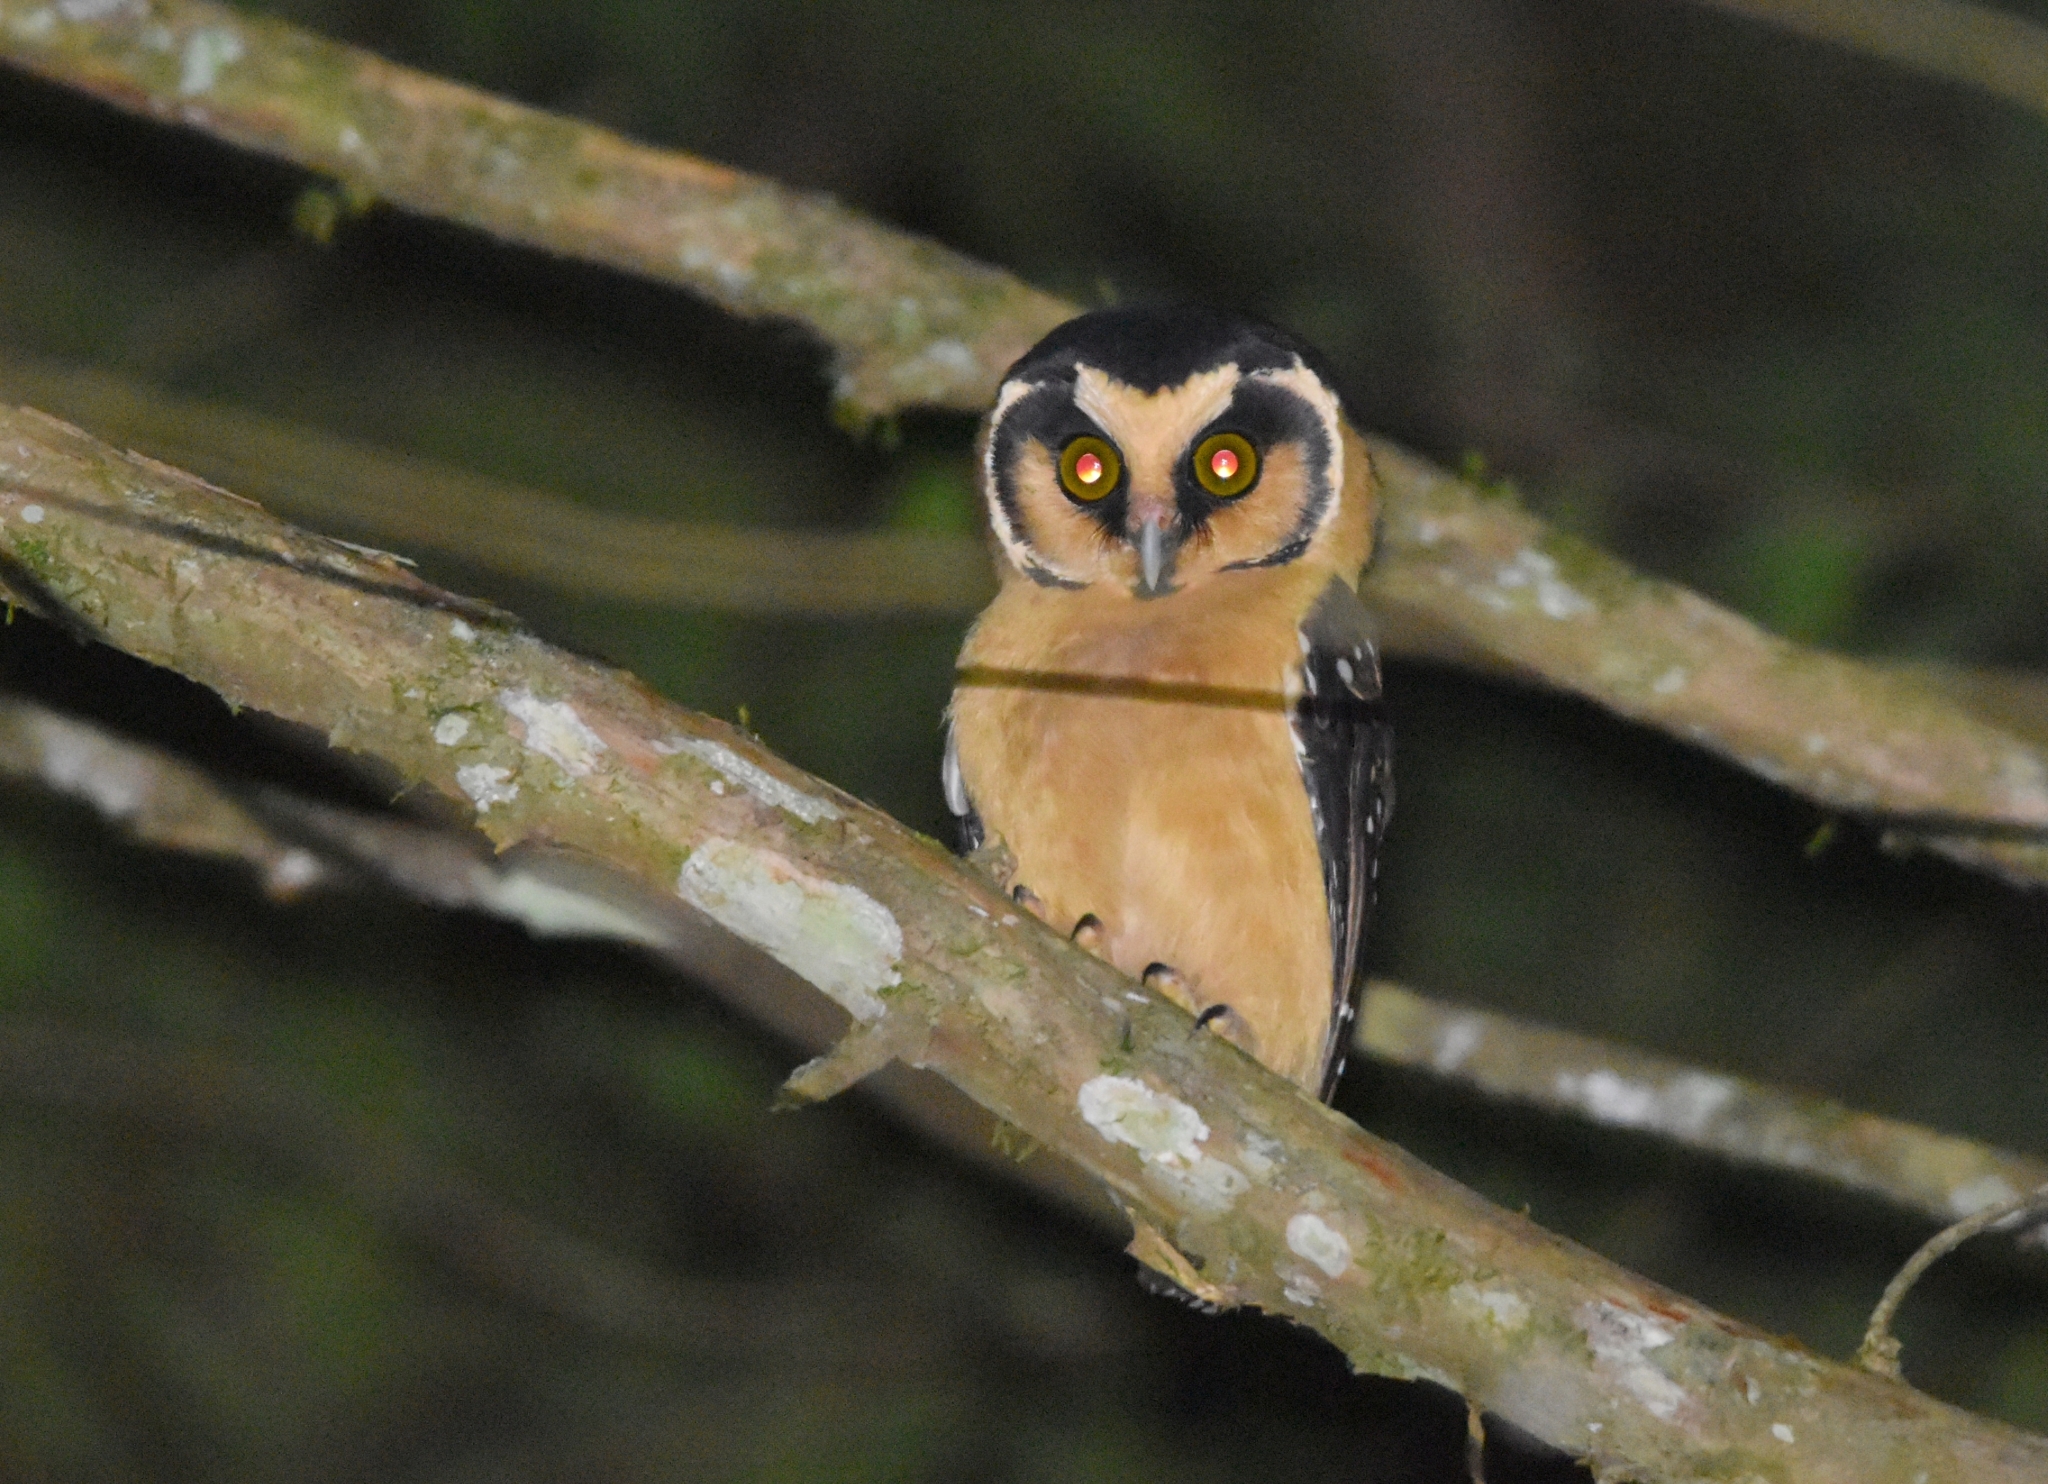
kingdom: Animalia
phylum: Chordata
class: Aves
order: Strigiformes
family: Strigidae
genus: Aegolius
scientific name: Aegolius harrisii
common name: Buff-fronted owl
